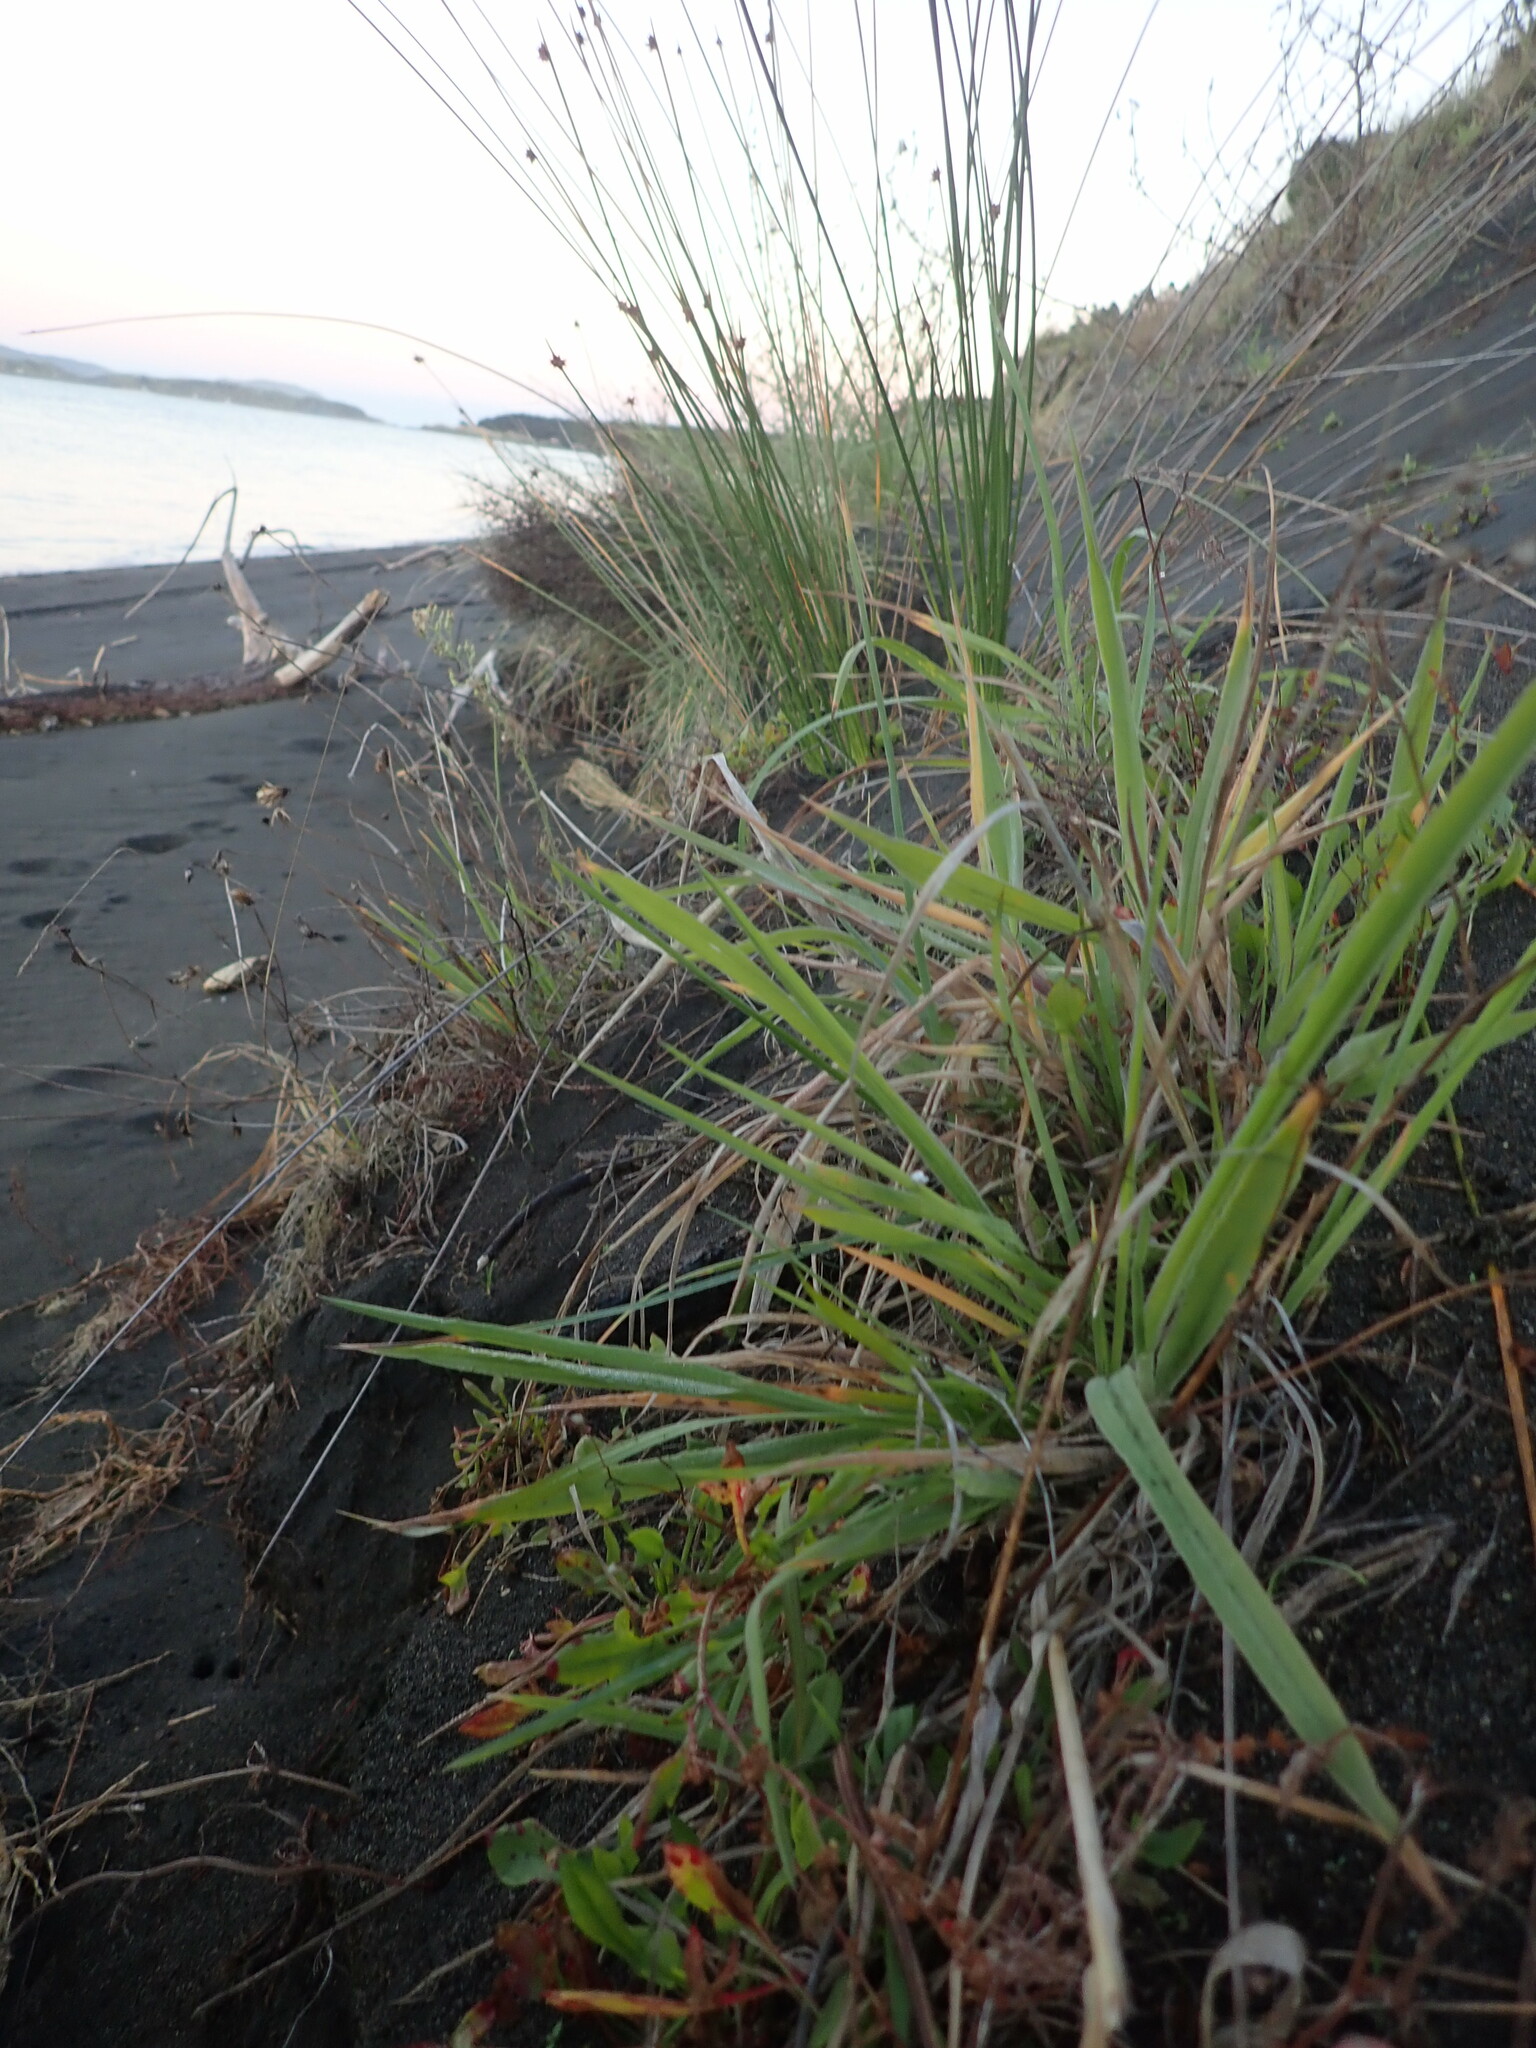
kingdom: Plantae
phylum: Tracheophyta
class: Magnoliopsida
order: Caryophyllales
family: Polygonaceae
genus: Rumex
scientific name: Rumex acetosella
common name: Common sheep sorrel
